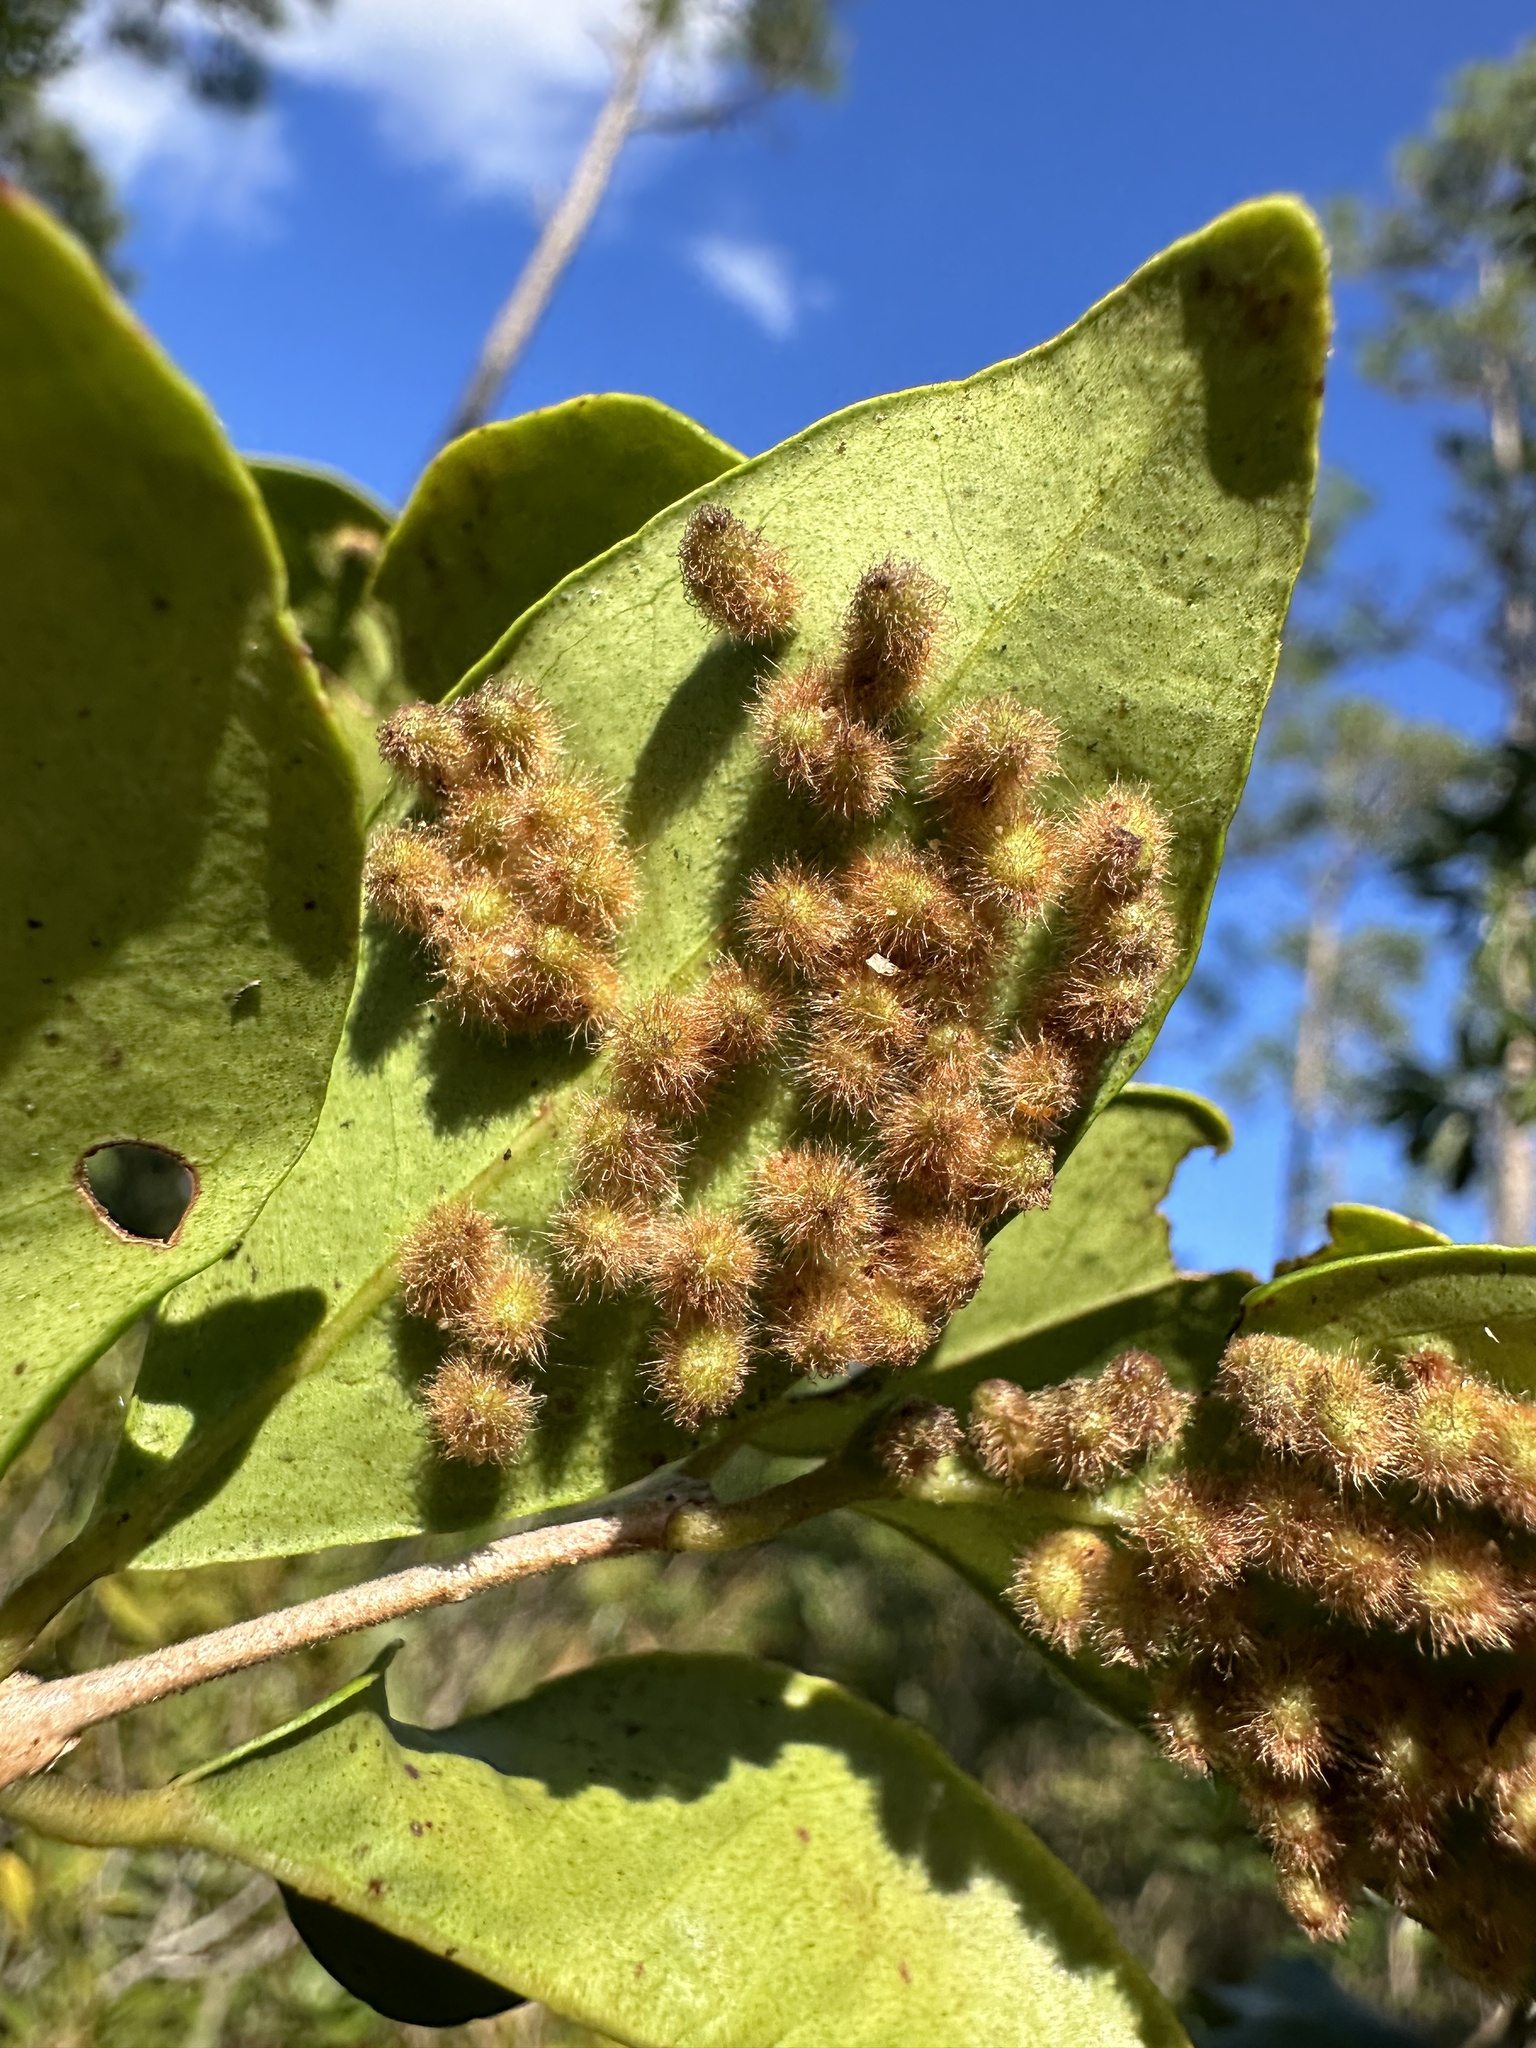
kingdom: Animalia
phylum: Arthropoda
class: Insecta
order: Diptera
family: Cecidomyiidae
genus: Stephomyia
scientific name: Stephomyia eugeniae
